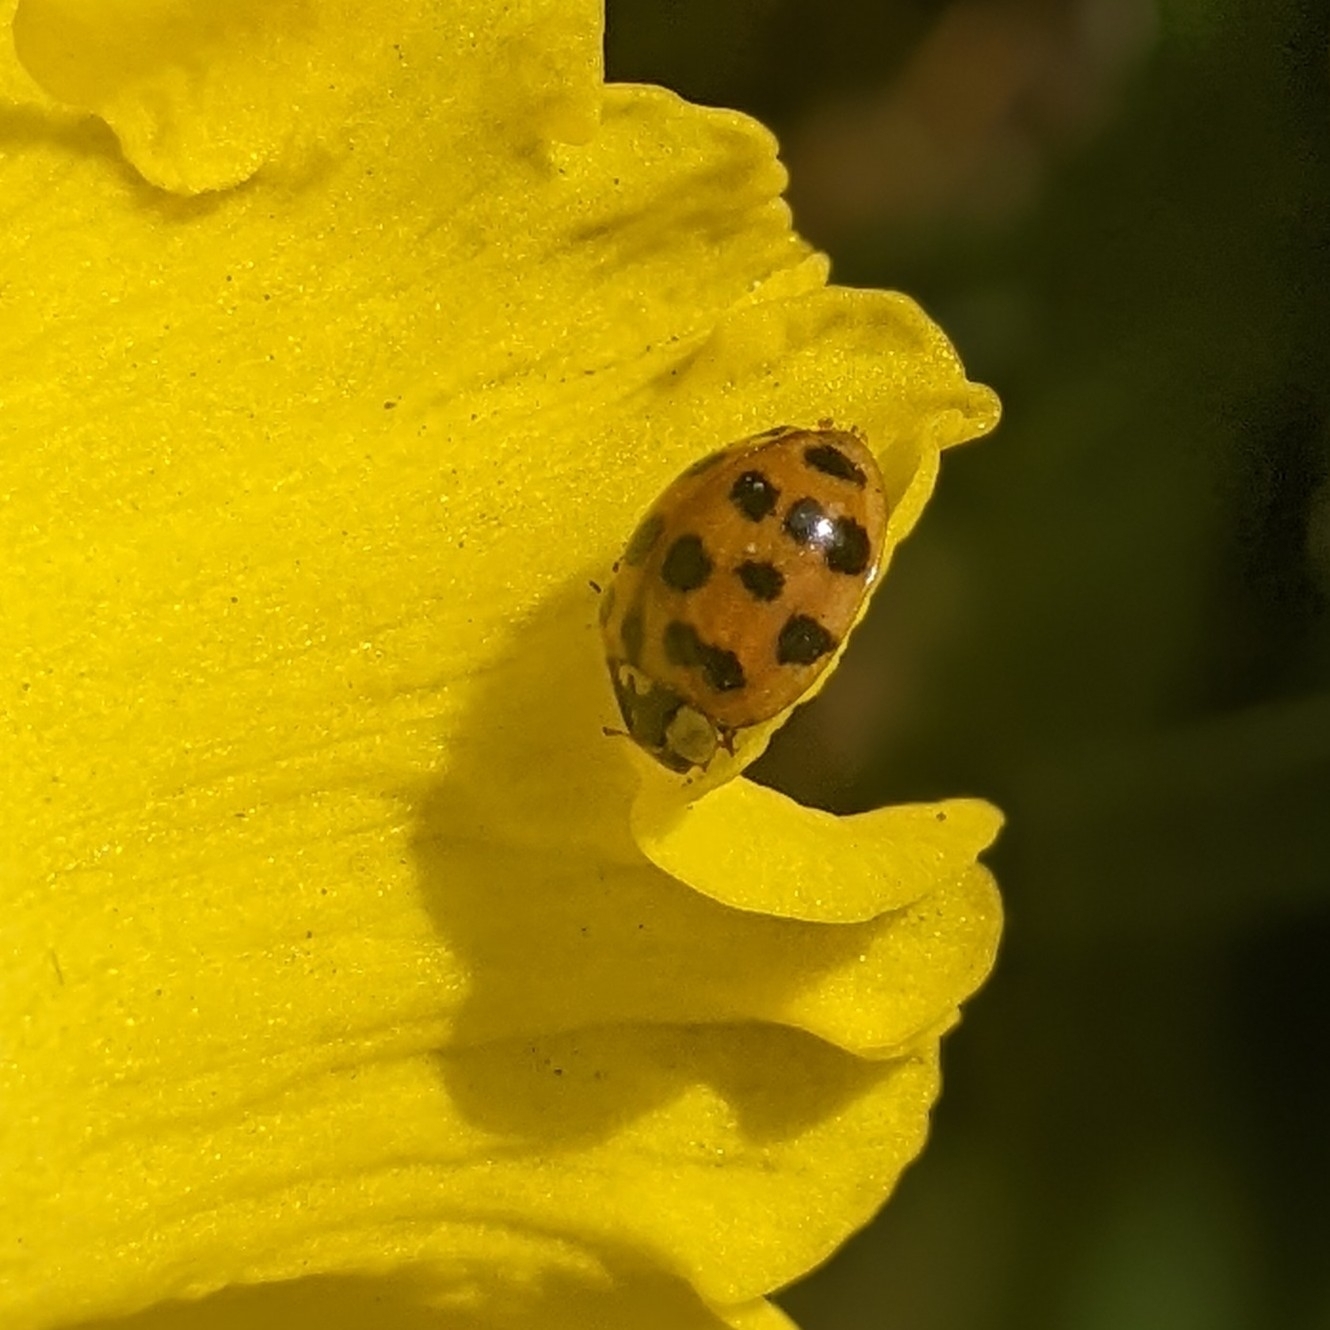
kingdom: Animalia
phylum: Arthropoda
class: Insecta
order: Coleoptera
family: Coccinellidae
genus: Harmonia
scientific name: Harmonia axyridis
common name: Harlequin ladybird
